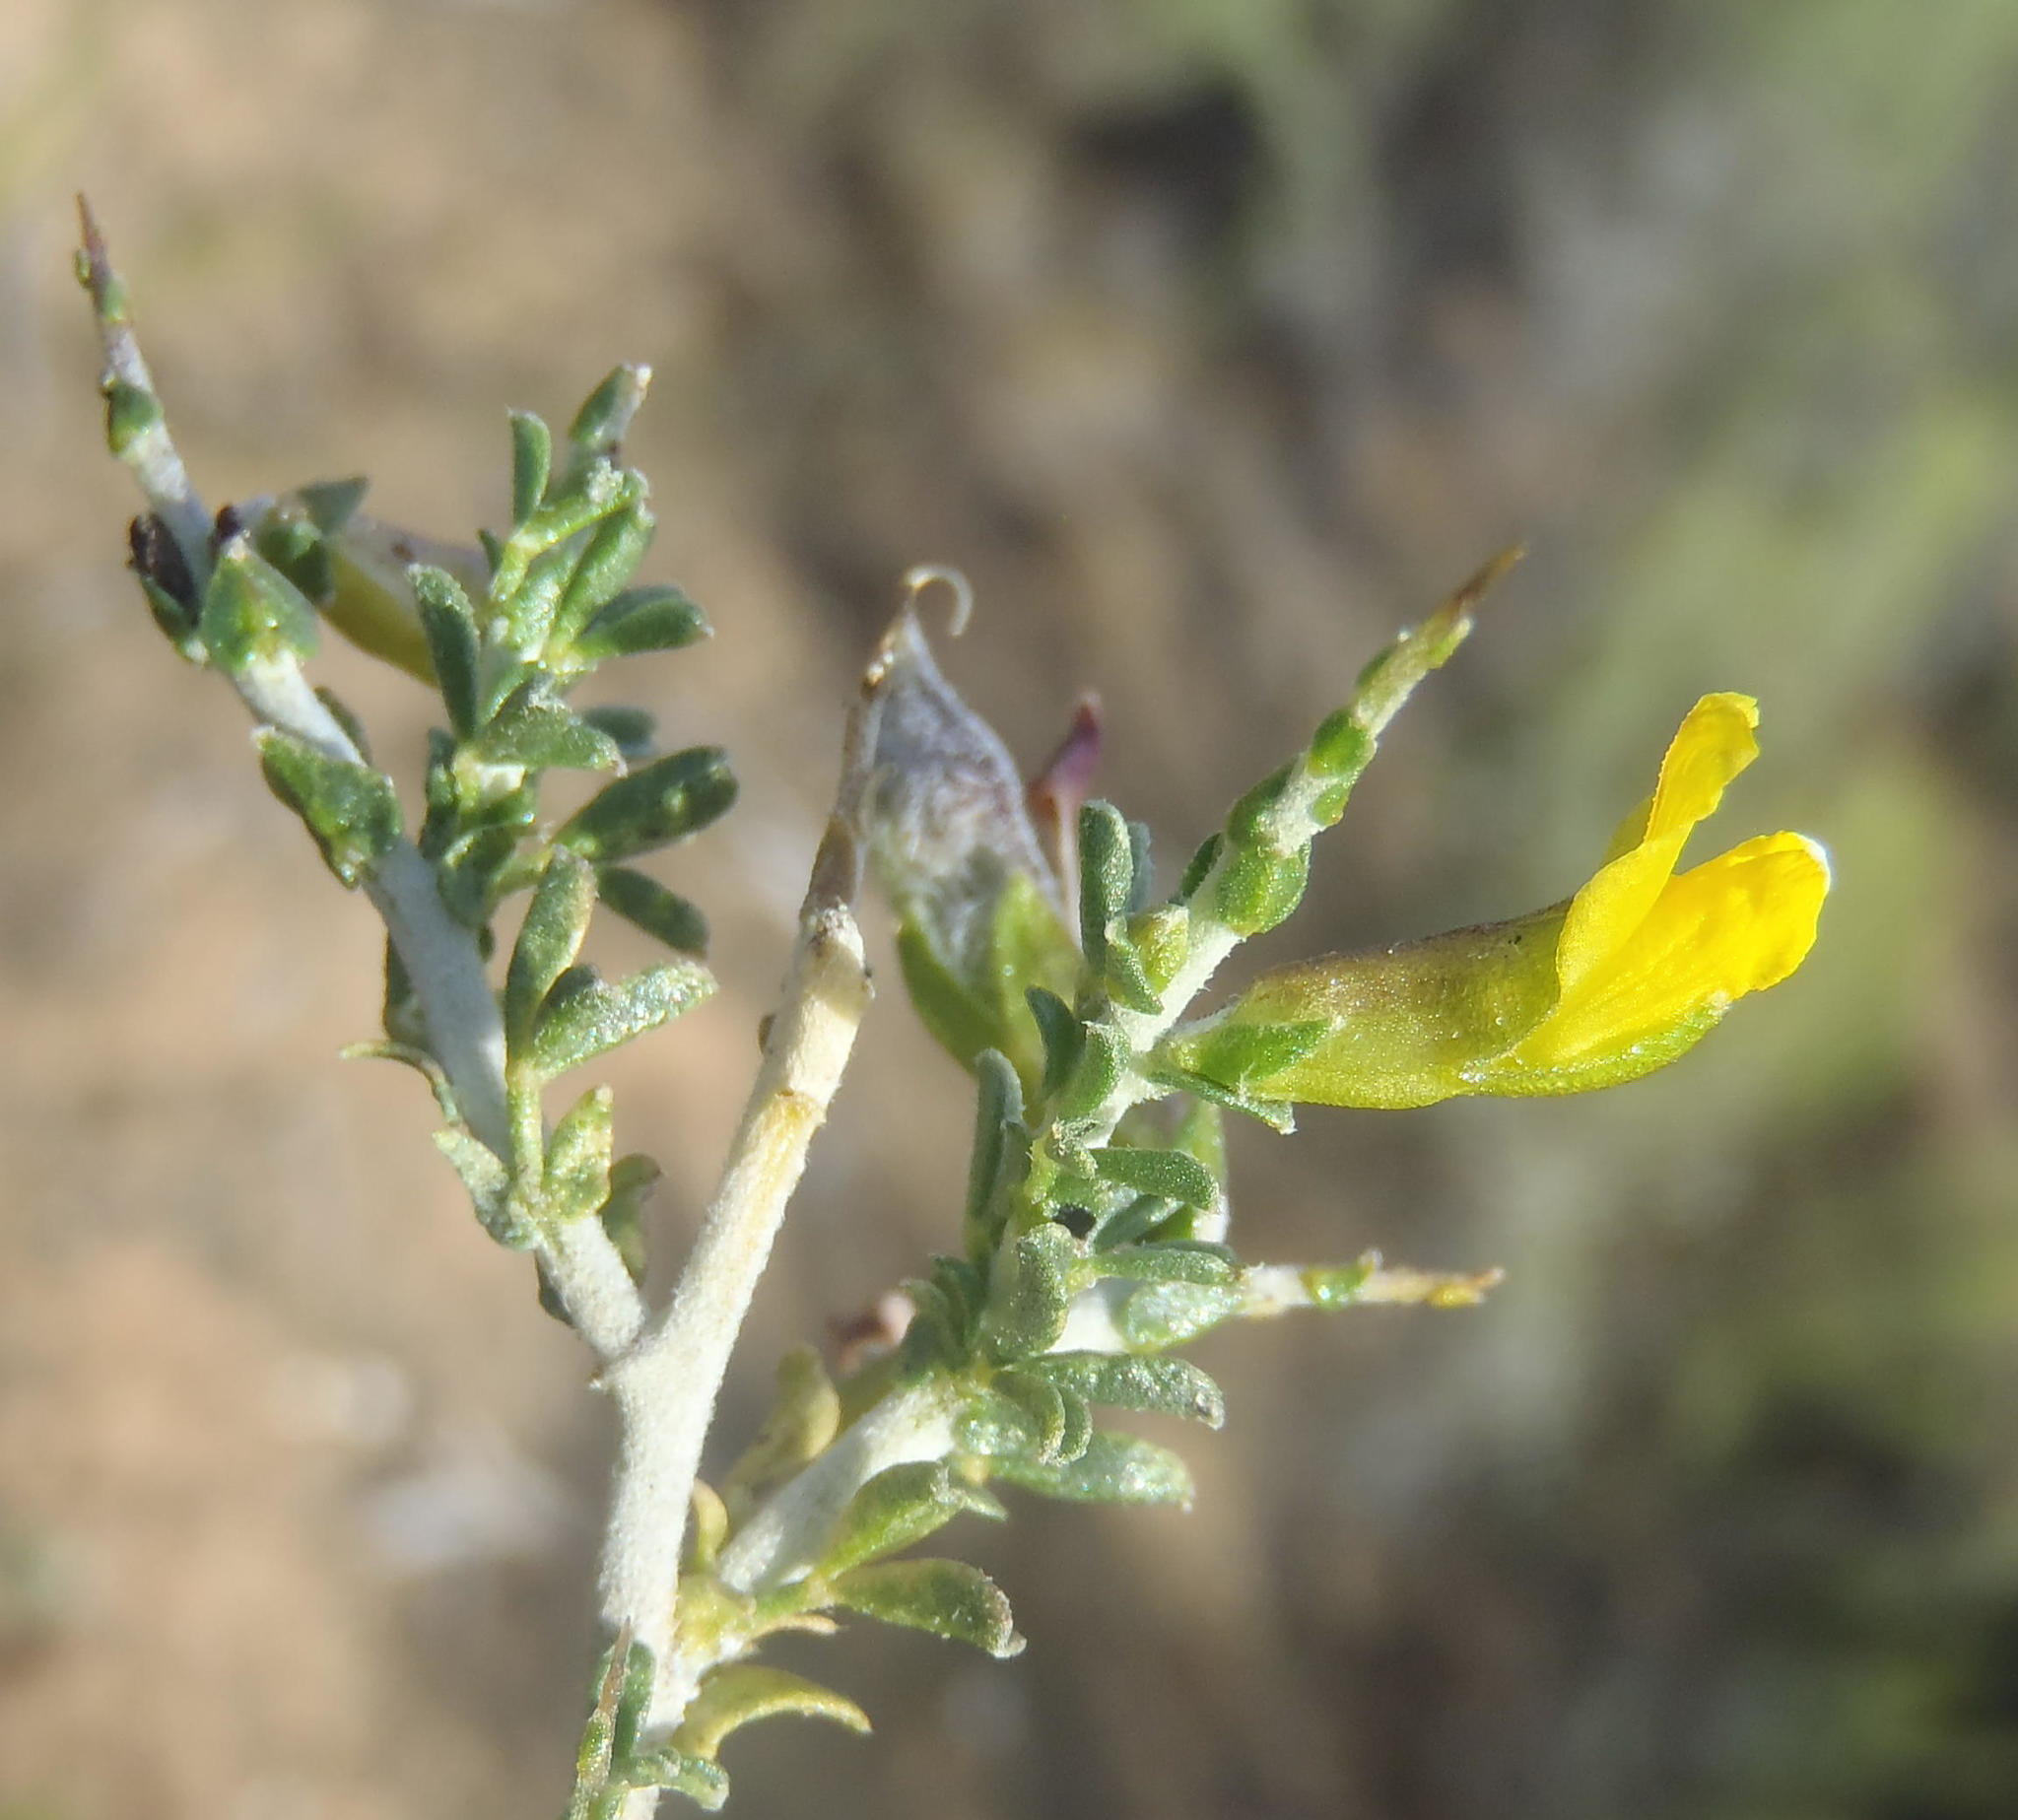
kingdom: Plantae
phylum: Tracheophyta
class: Magnoliopsida
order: Fabales
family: Fabaceae
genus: Melolobium
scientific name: Melolobium candicans
